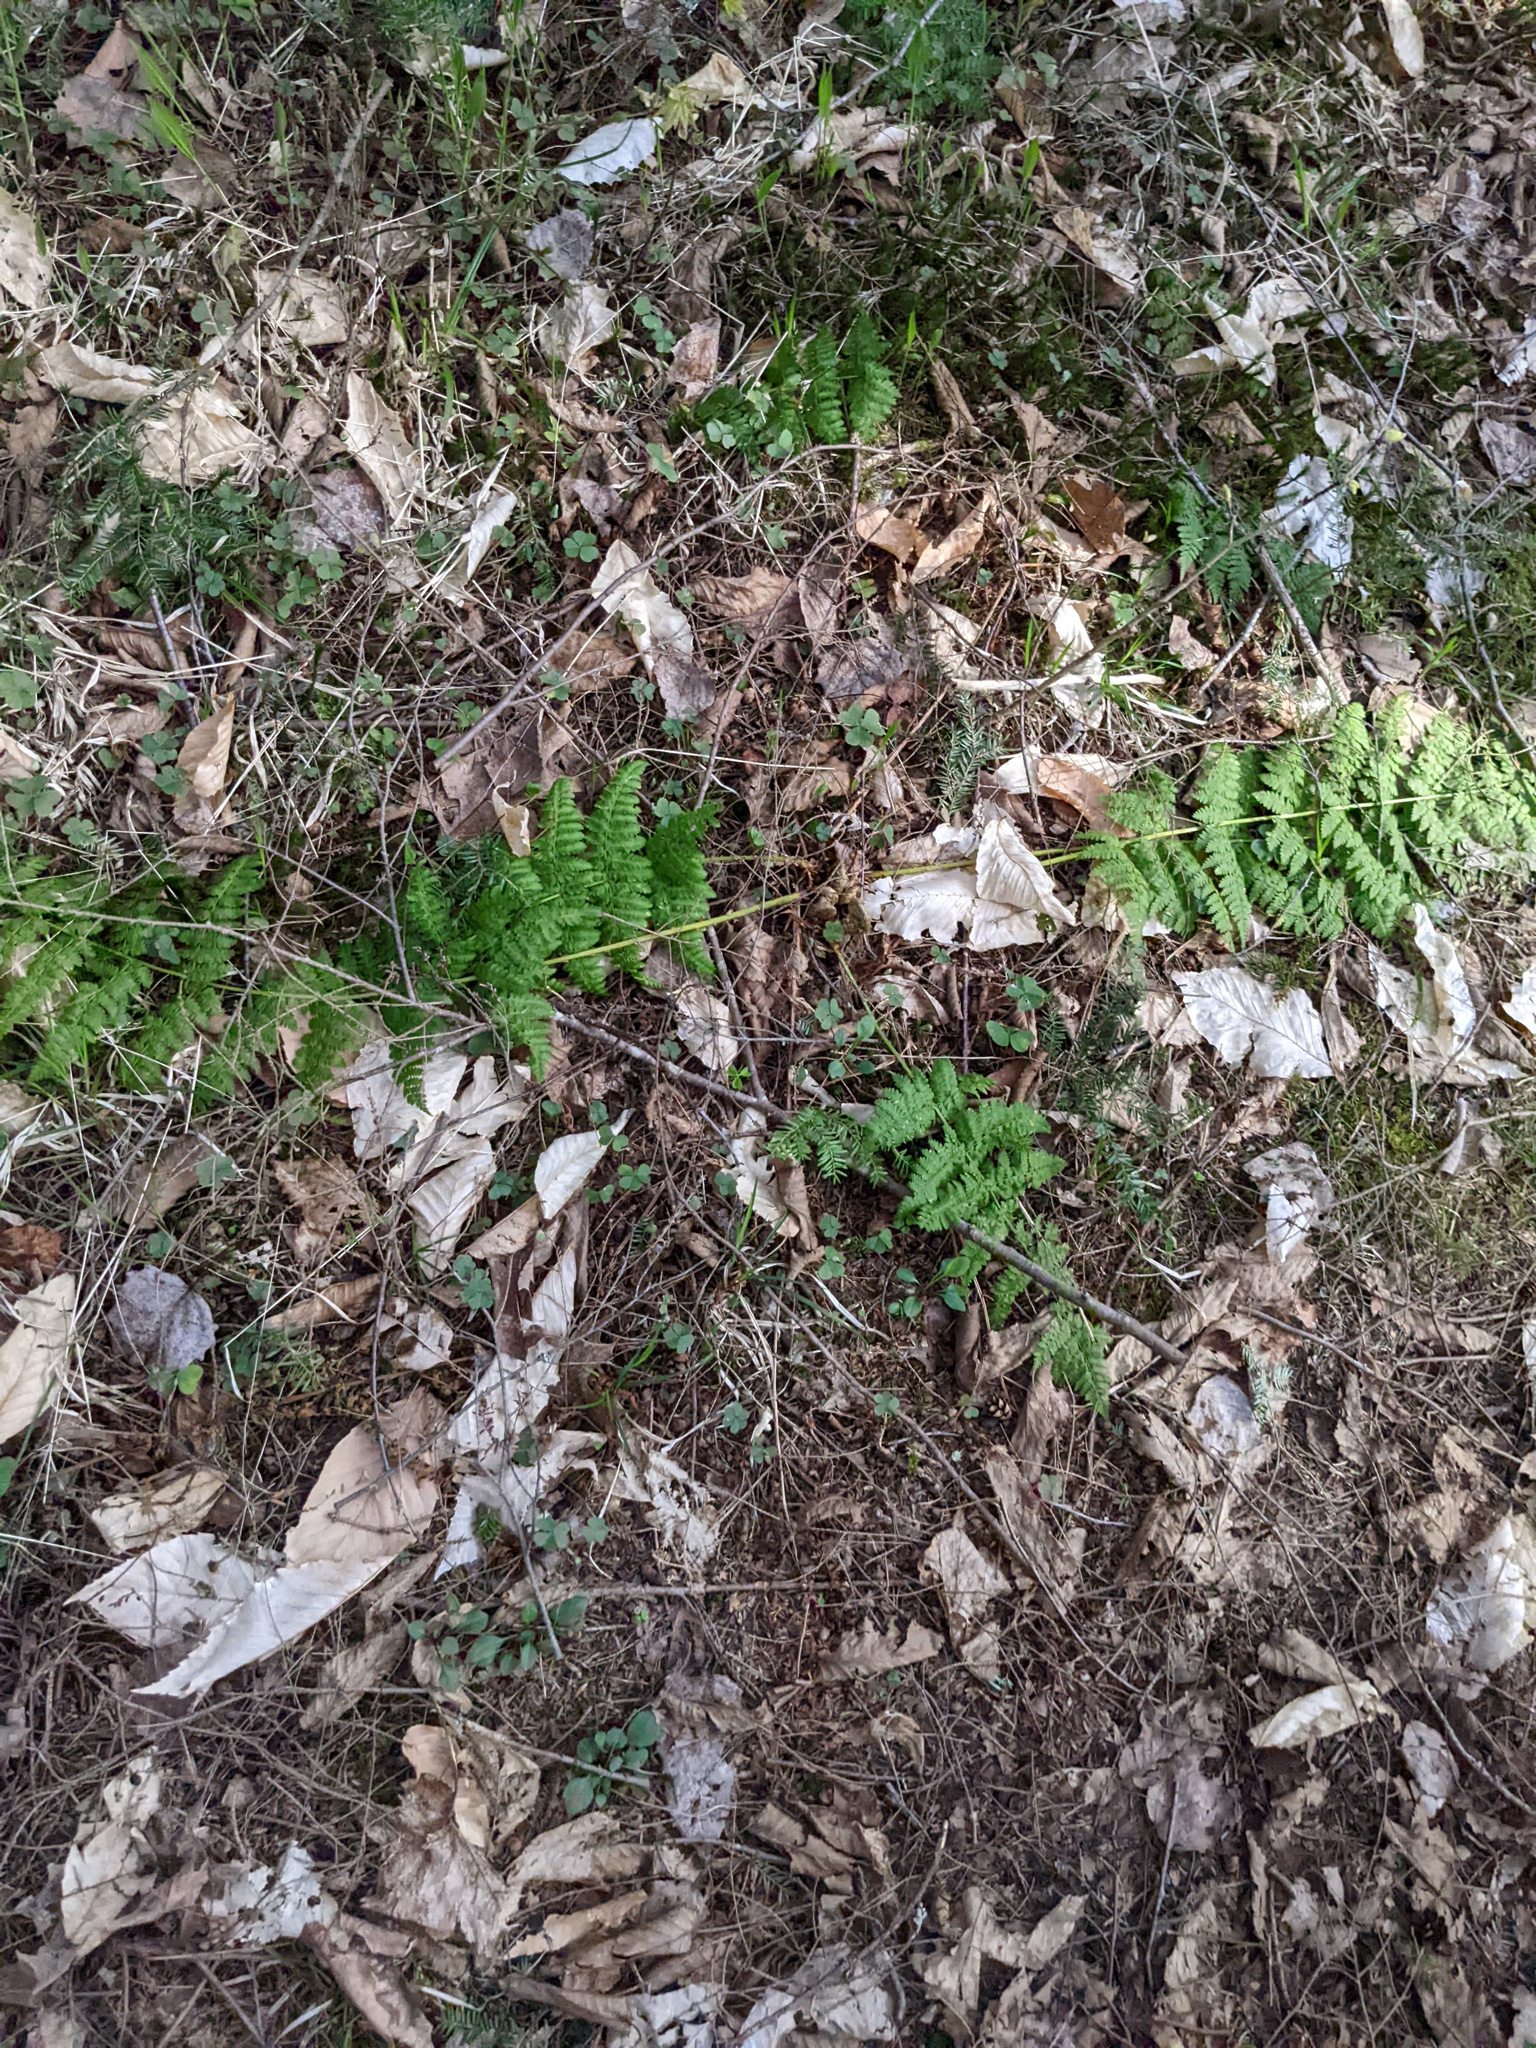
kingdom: Plantae
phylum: Tracheophyta
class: Polypodiopsida
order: Polypodiales
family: Dryopteridaceae
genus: Dryopteris
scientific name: Dryopteris intermedia
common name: Evergreen wood fern
